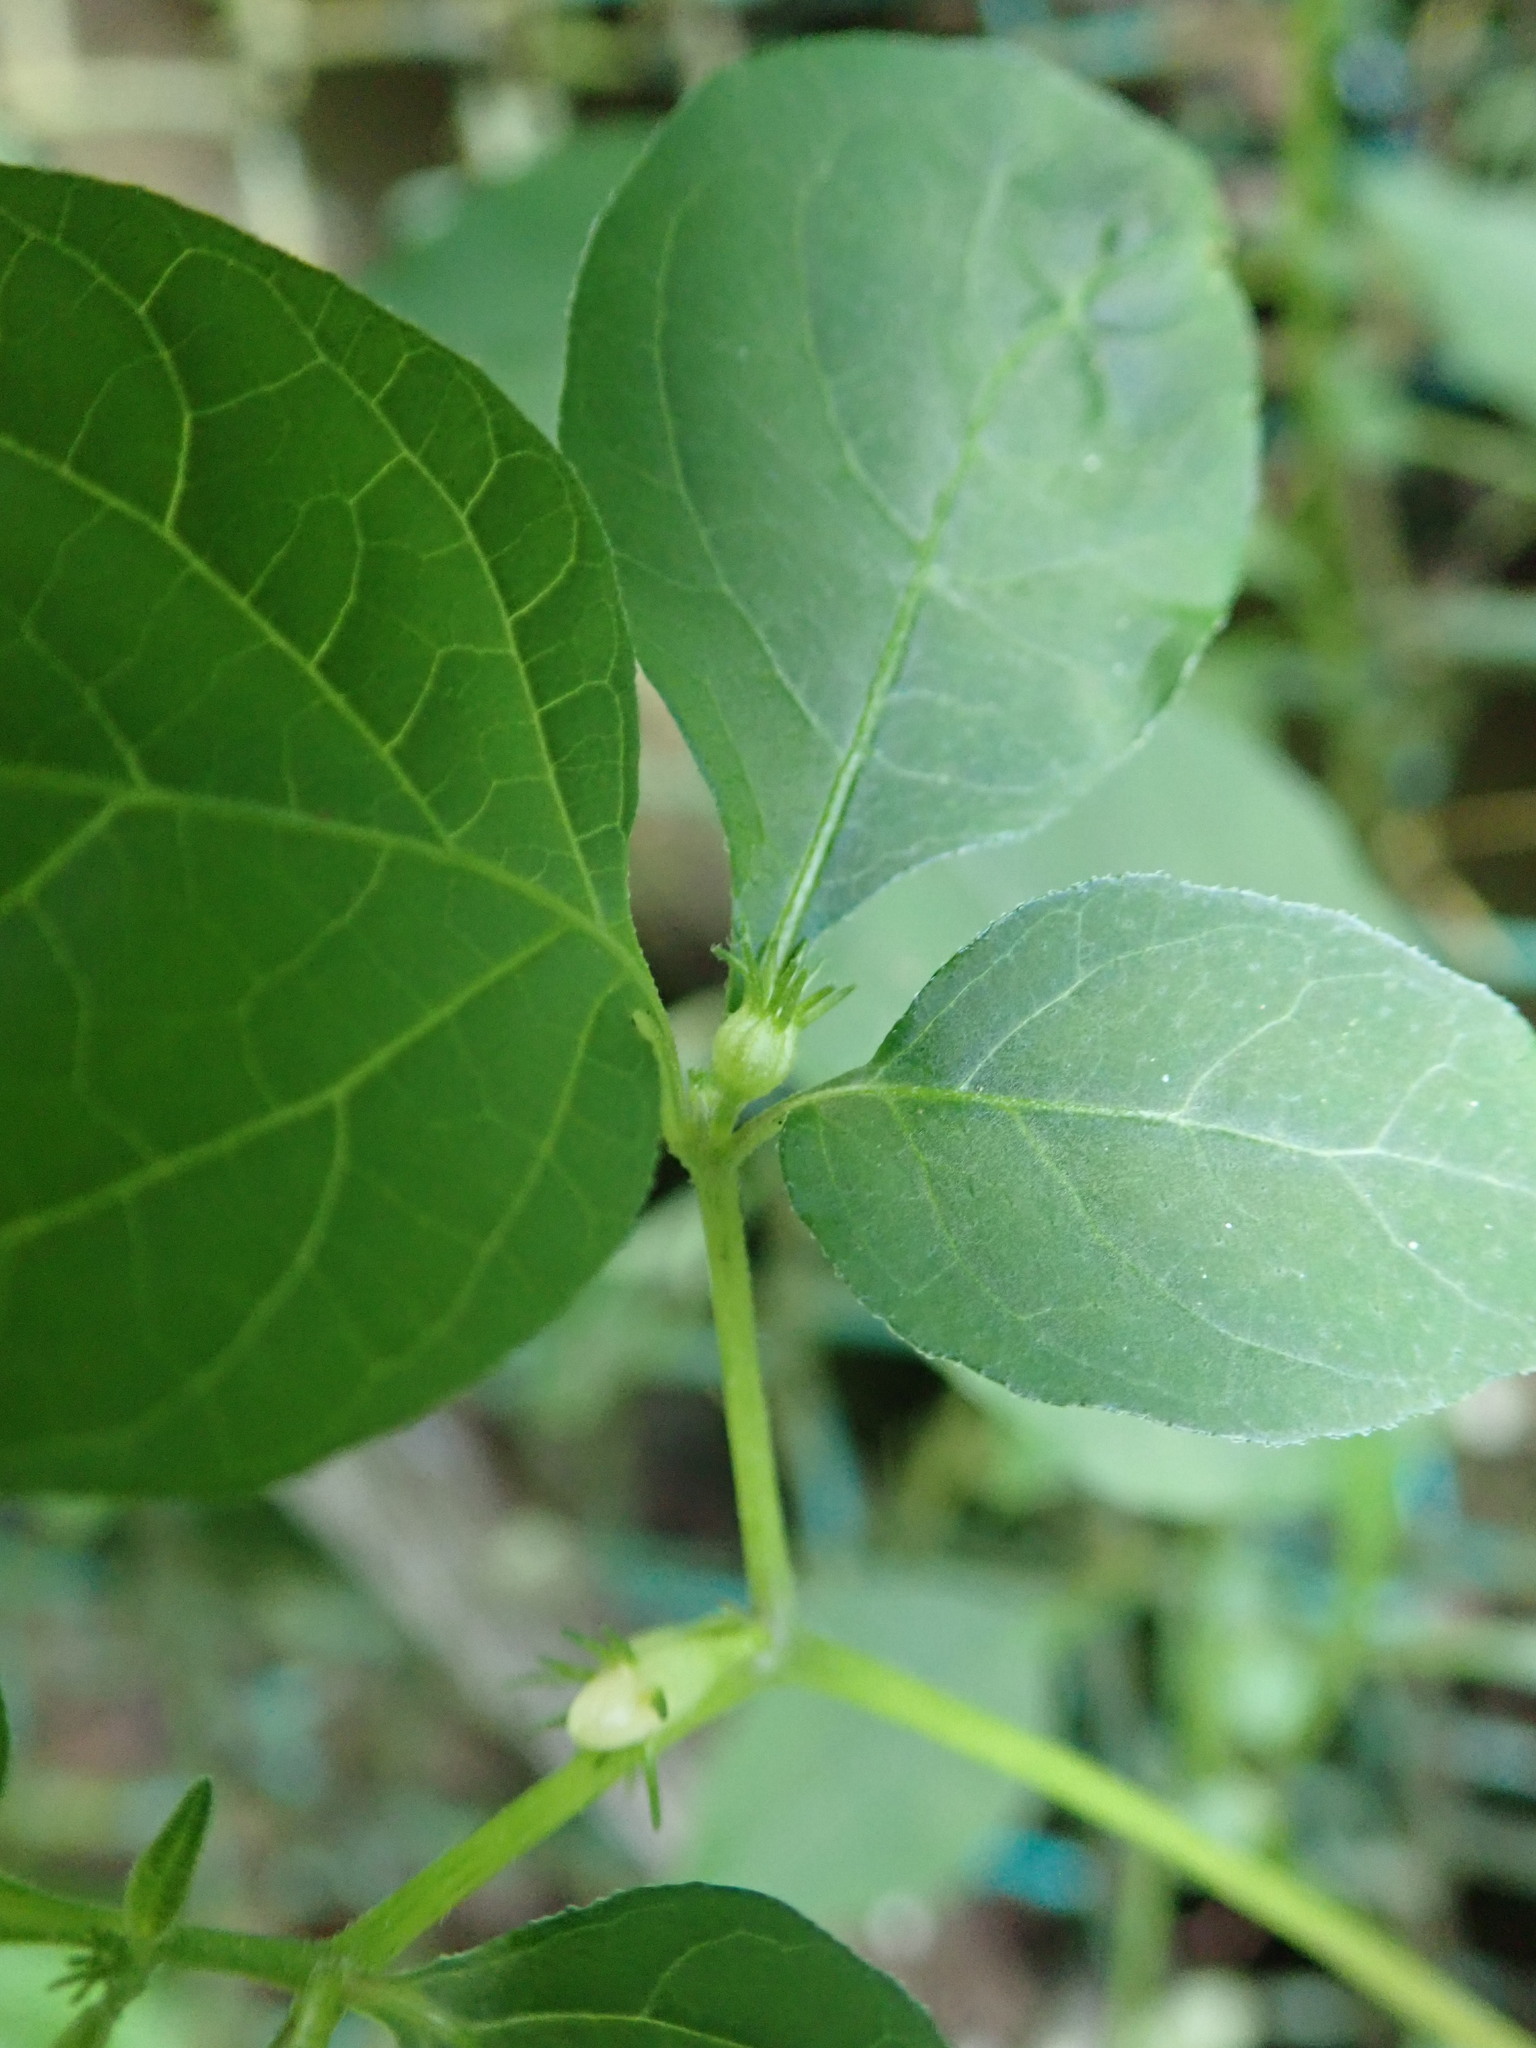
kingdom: Plantae
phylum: Tracheophyta
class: Magnoliopsida
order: Solanales
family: Solanaceae
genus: Lycianthes
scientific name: Lycianthes biflora
